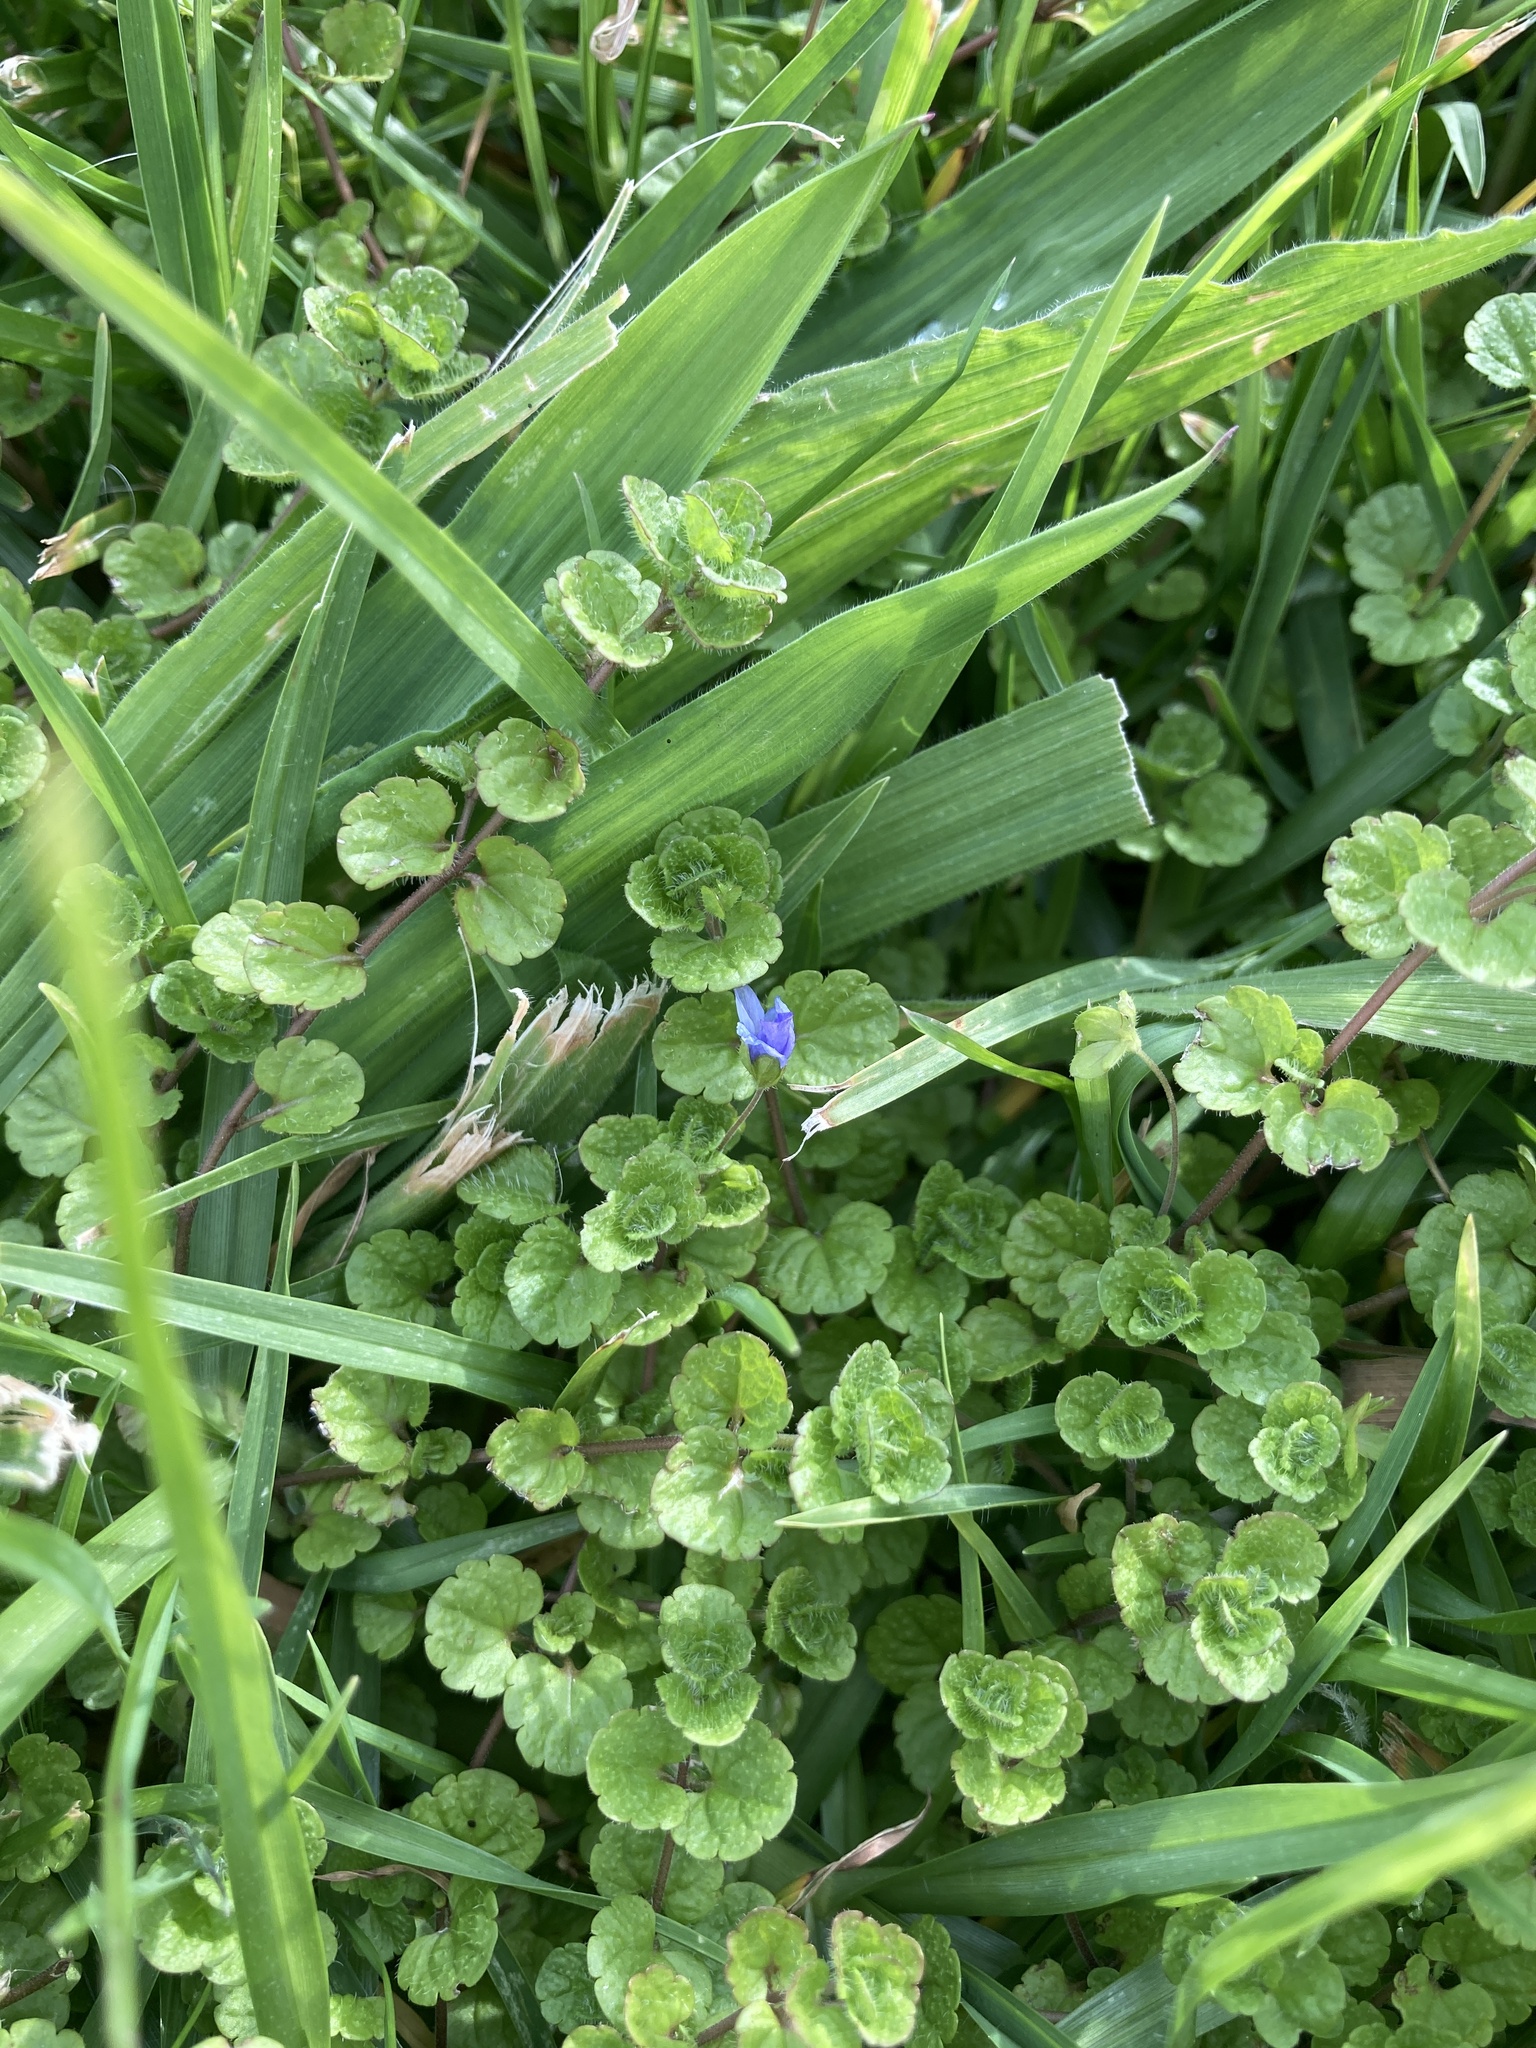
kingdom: Plantae
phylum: Tracheophyta
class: Magnoliopsida
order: Lamiales
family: Plantaginaceae
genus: Veronica
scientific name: Veronica filiformis
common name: Slender speedwell
